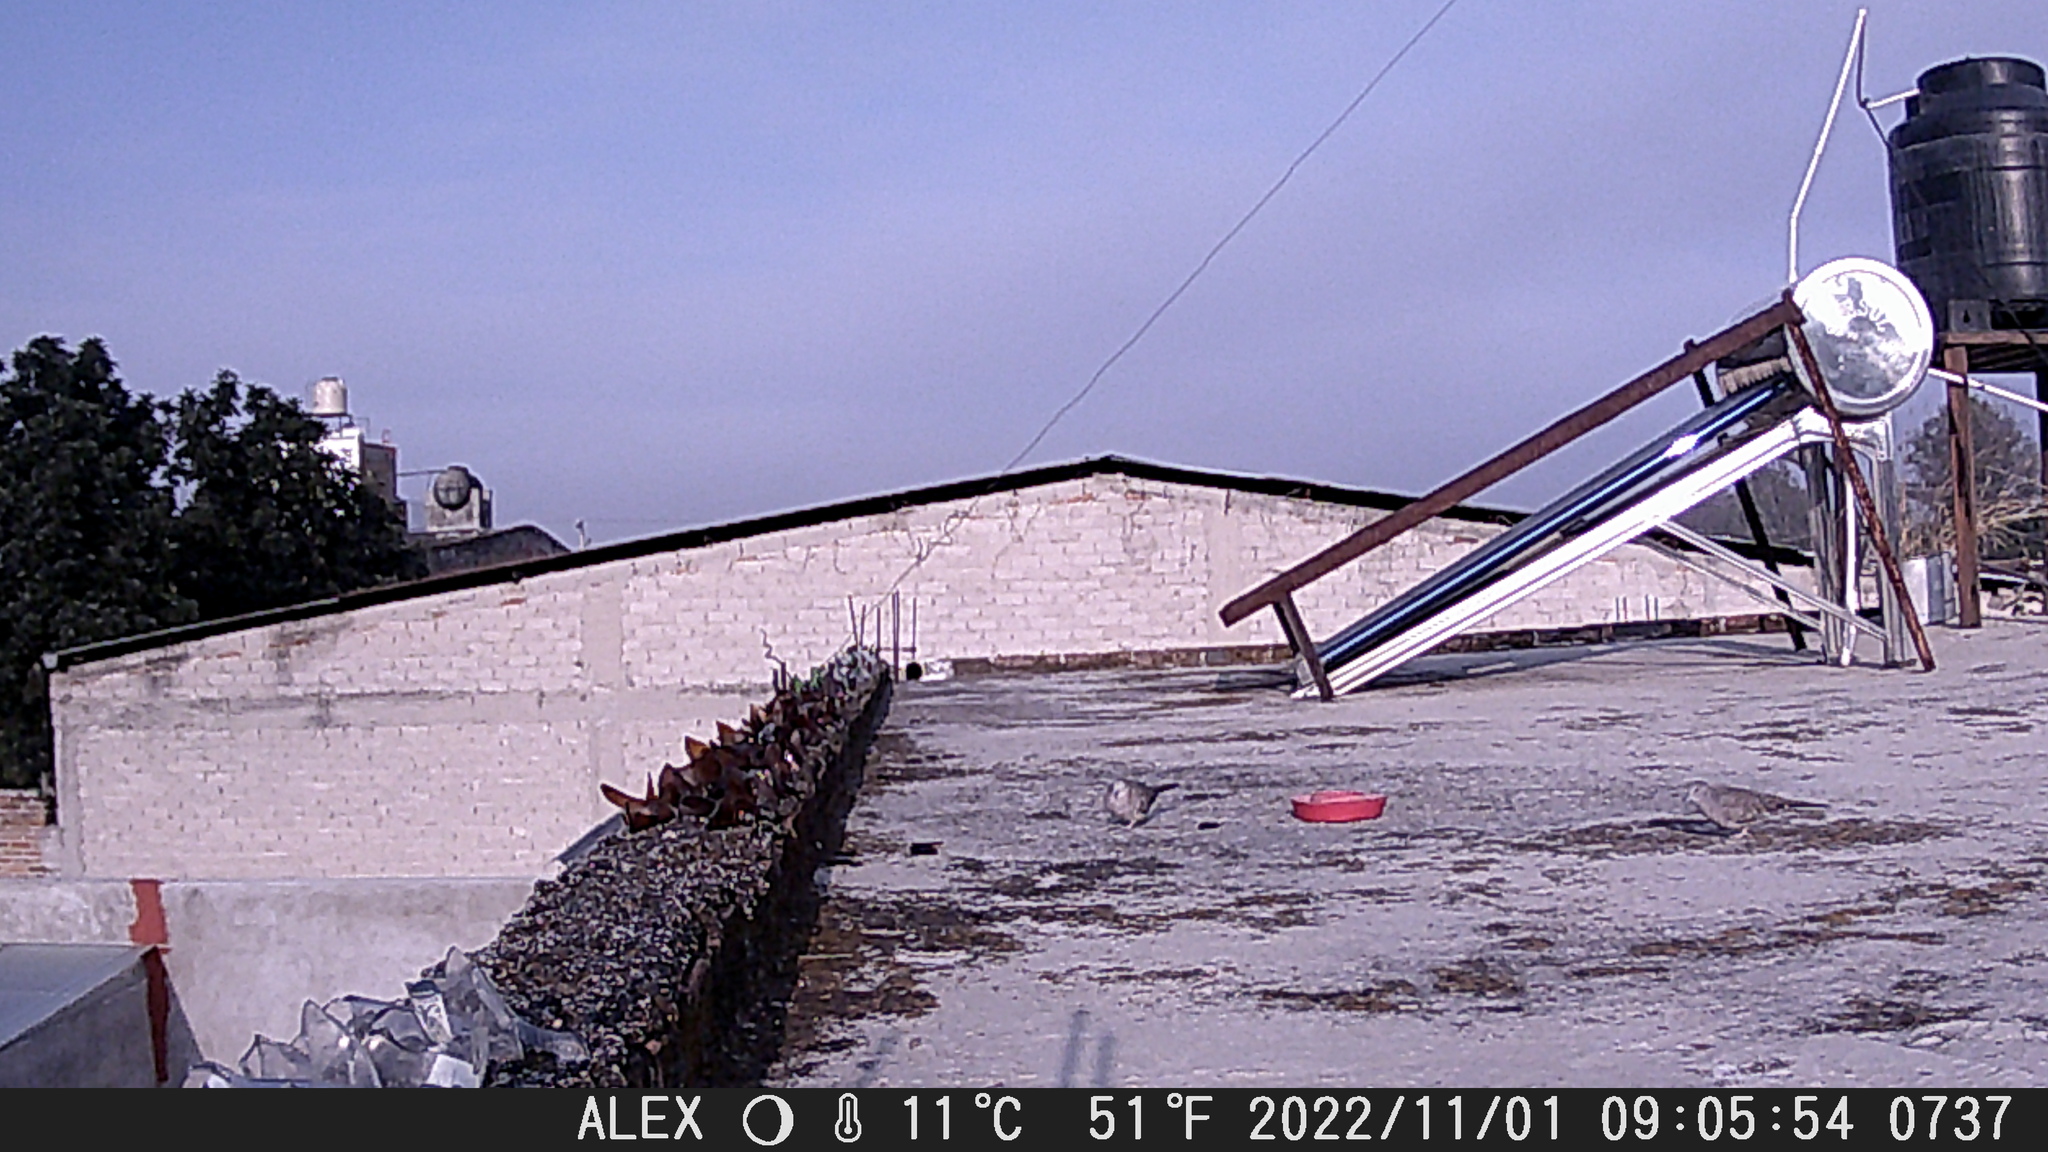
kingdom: Animalia
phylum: Chordata
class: Aves
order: Columbiformes
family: Columbidae
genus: Columbina
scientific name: Columbina inca
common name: Inca dove
